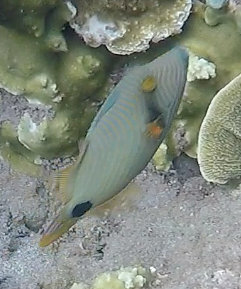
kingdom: Animalia
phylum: Chordata
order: Tetraodontiformes
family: Balistidae
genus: Balistapus
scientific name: Balistapus undulatus
